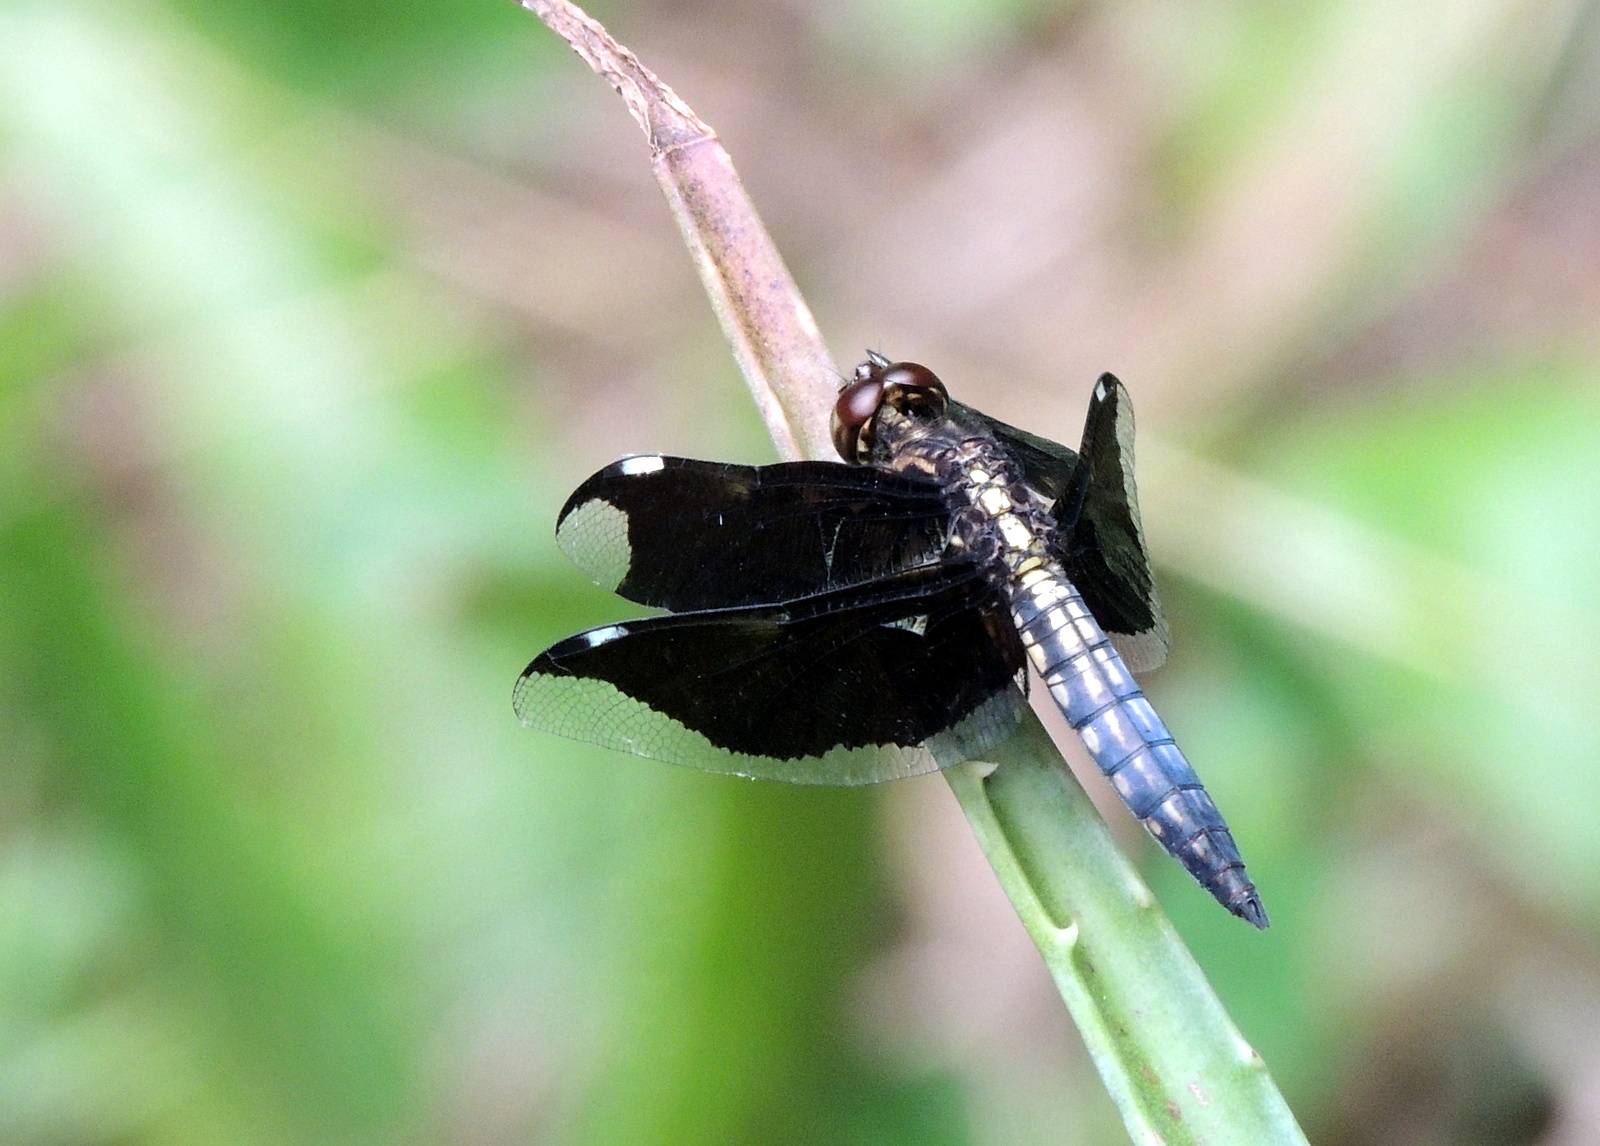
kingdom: Animalia
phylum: Arthropoda
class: Insecta
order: Odonata
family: Libellulidae
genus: Palpopleura
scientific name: Palpopleura lucia
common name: Lucia widow
